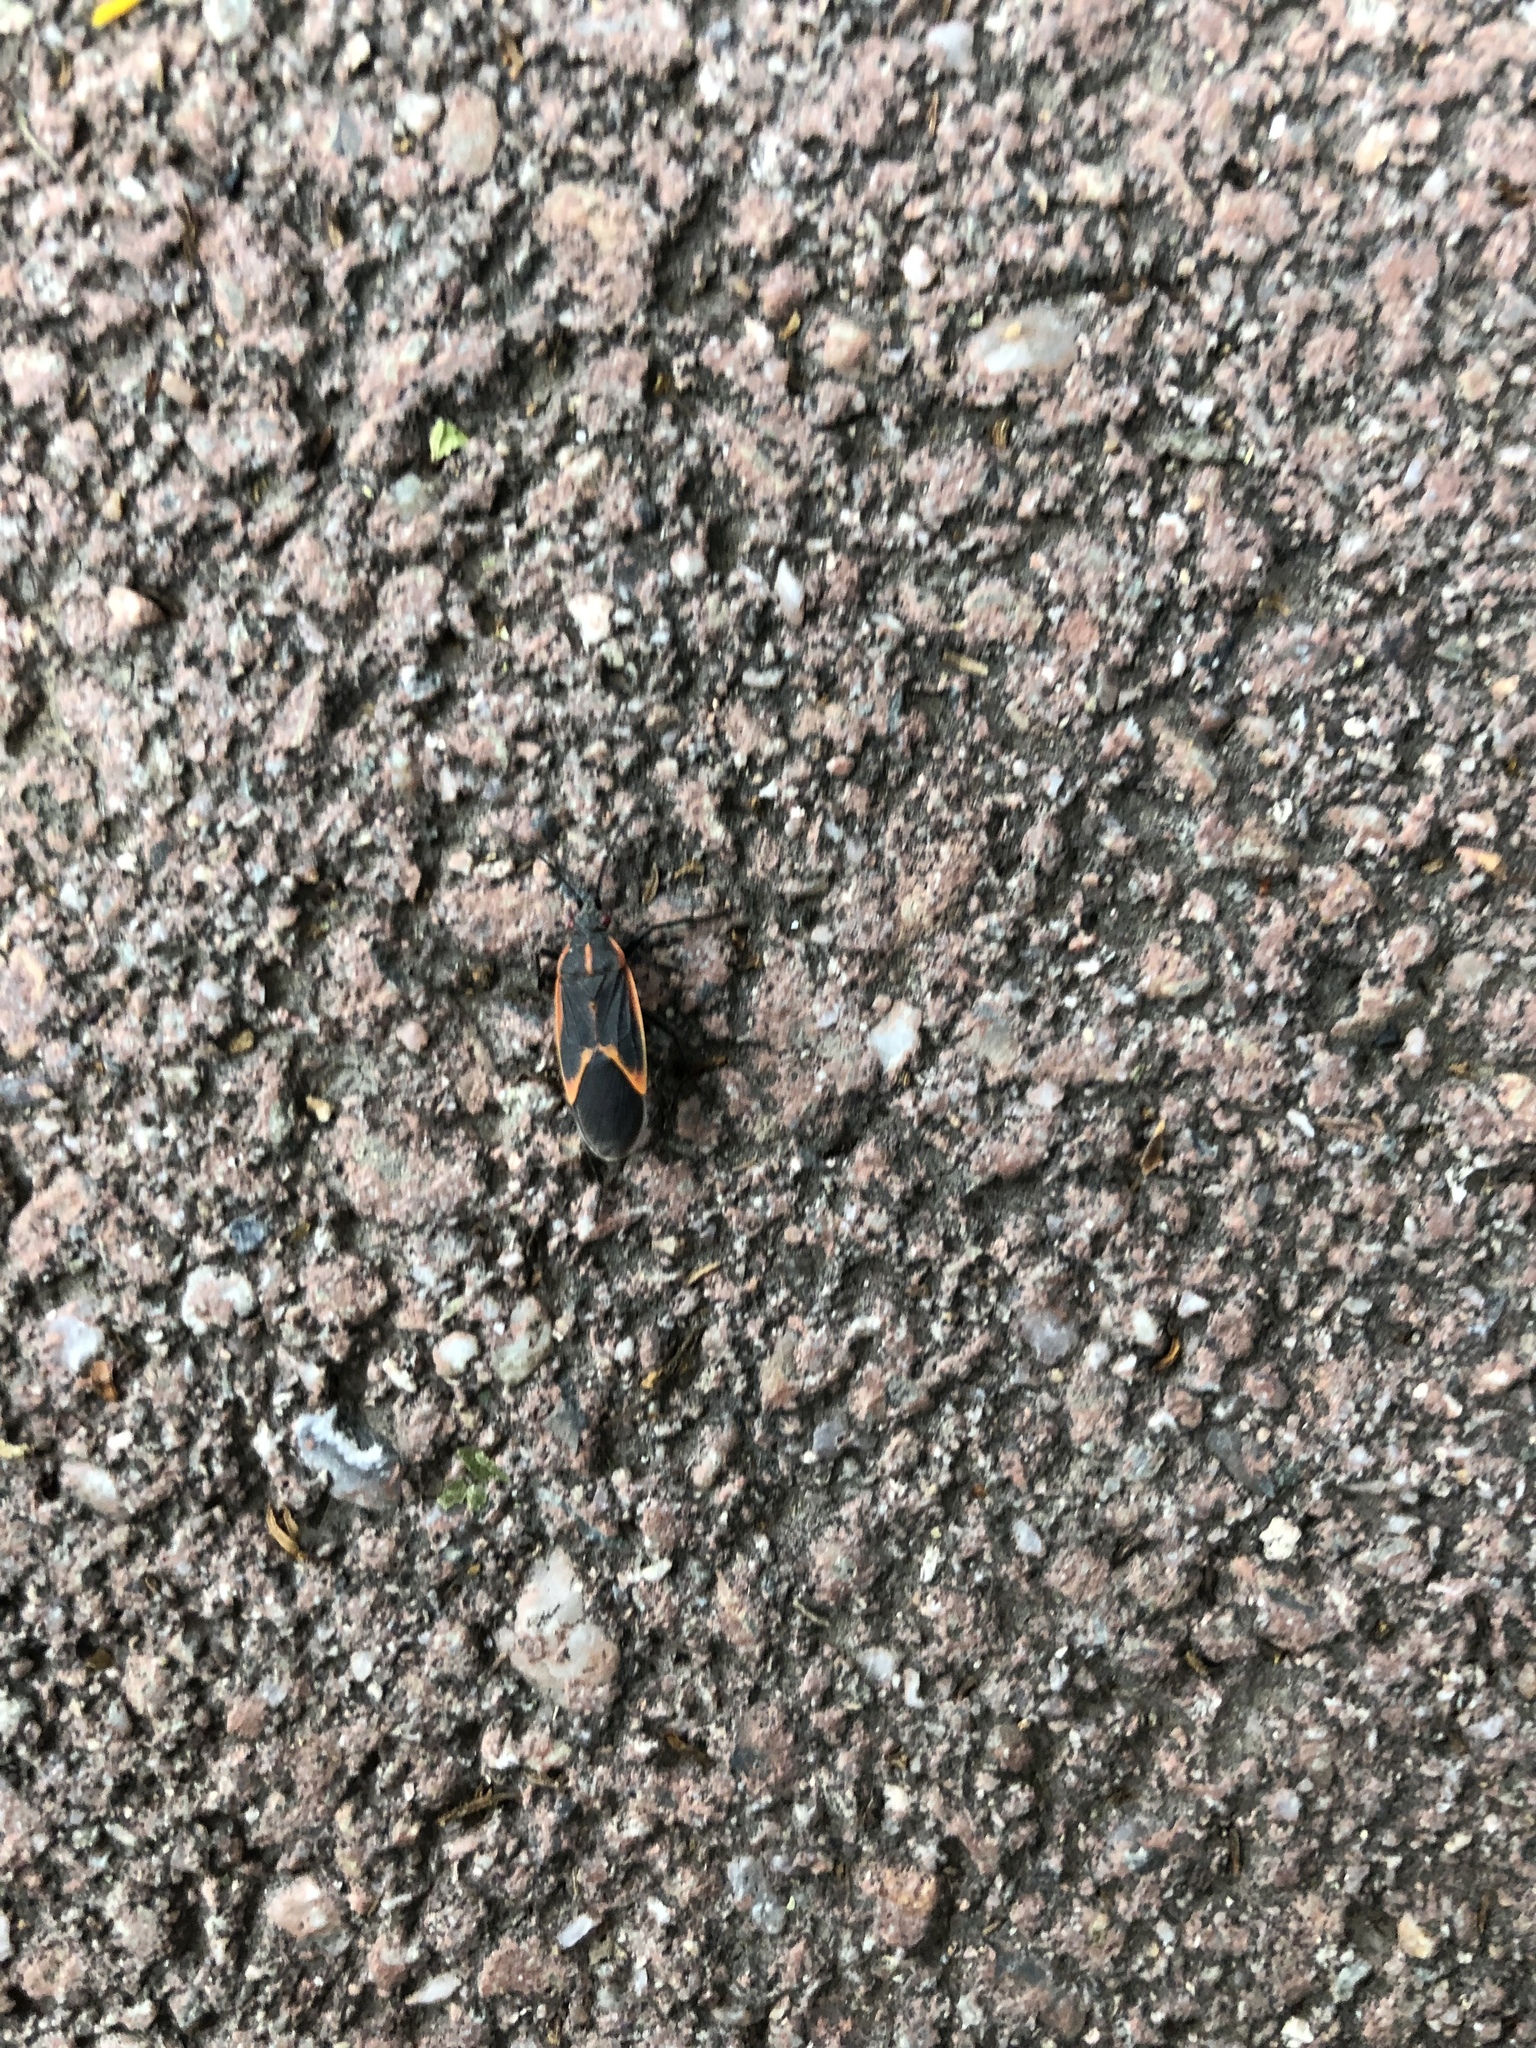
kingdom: Animalia
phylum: Arthropoda
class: Insecta
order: Hemiptera
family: Rhopalidae
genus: Boisea
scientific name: Boisea trivittata
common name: Boxelder bug
